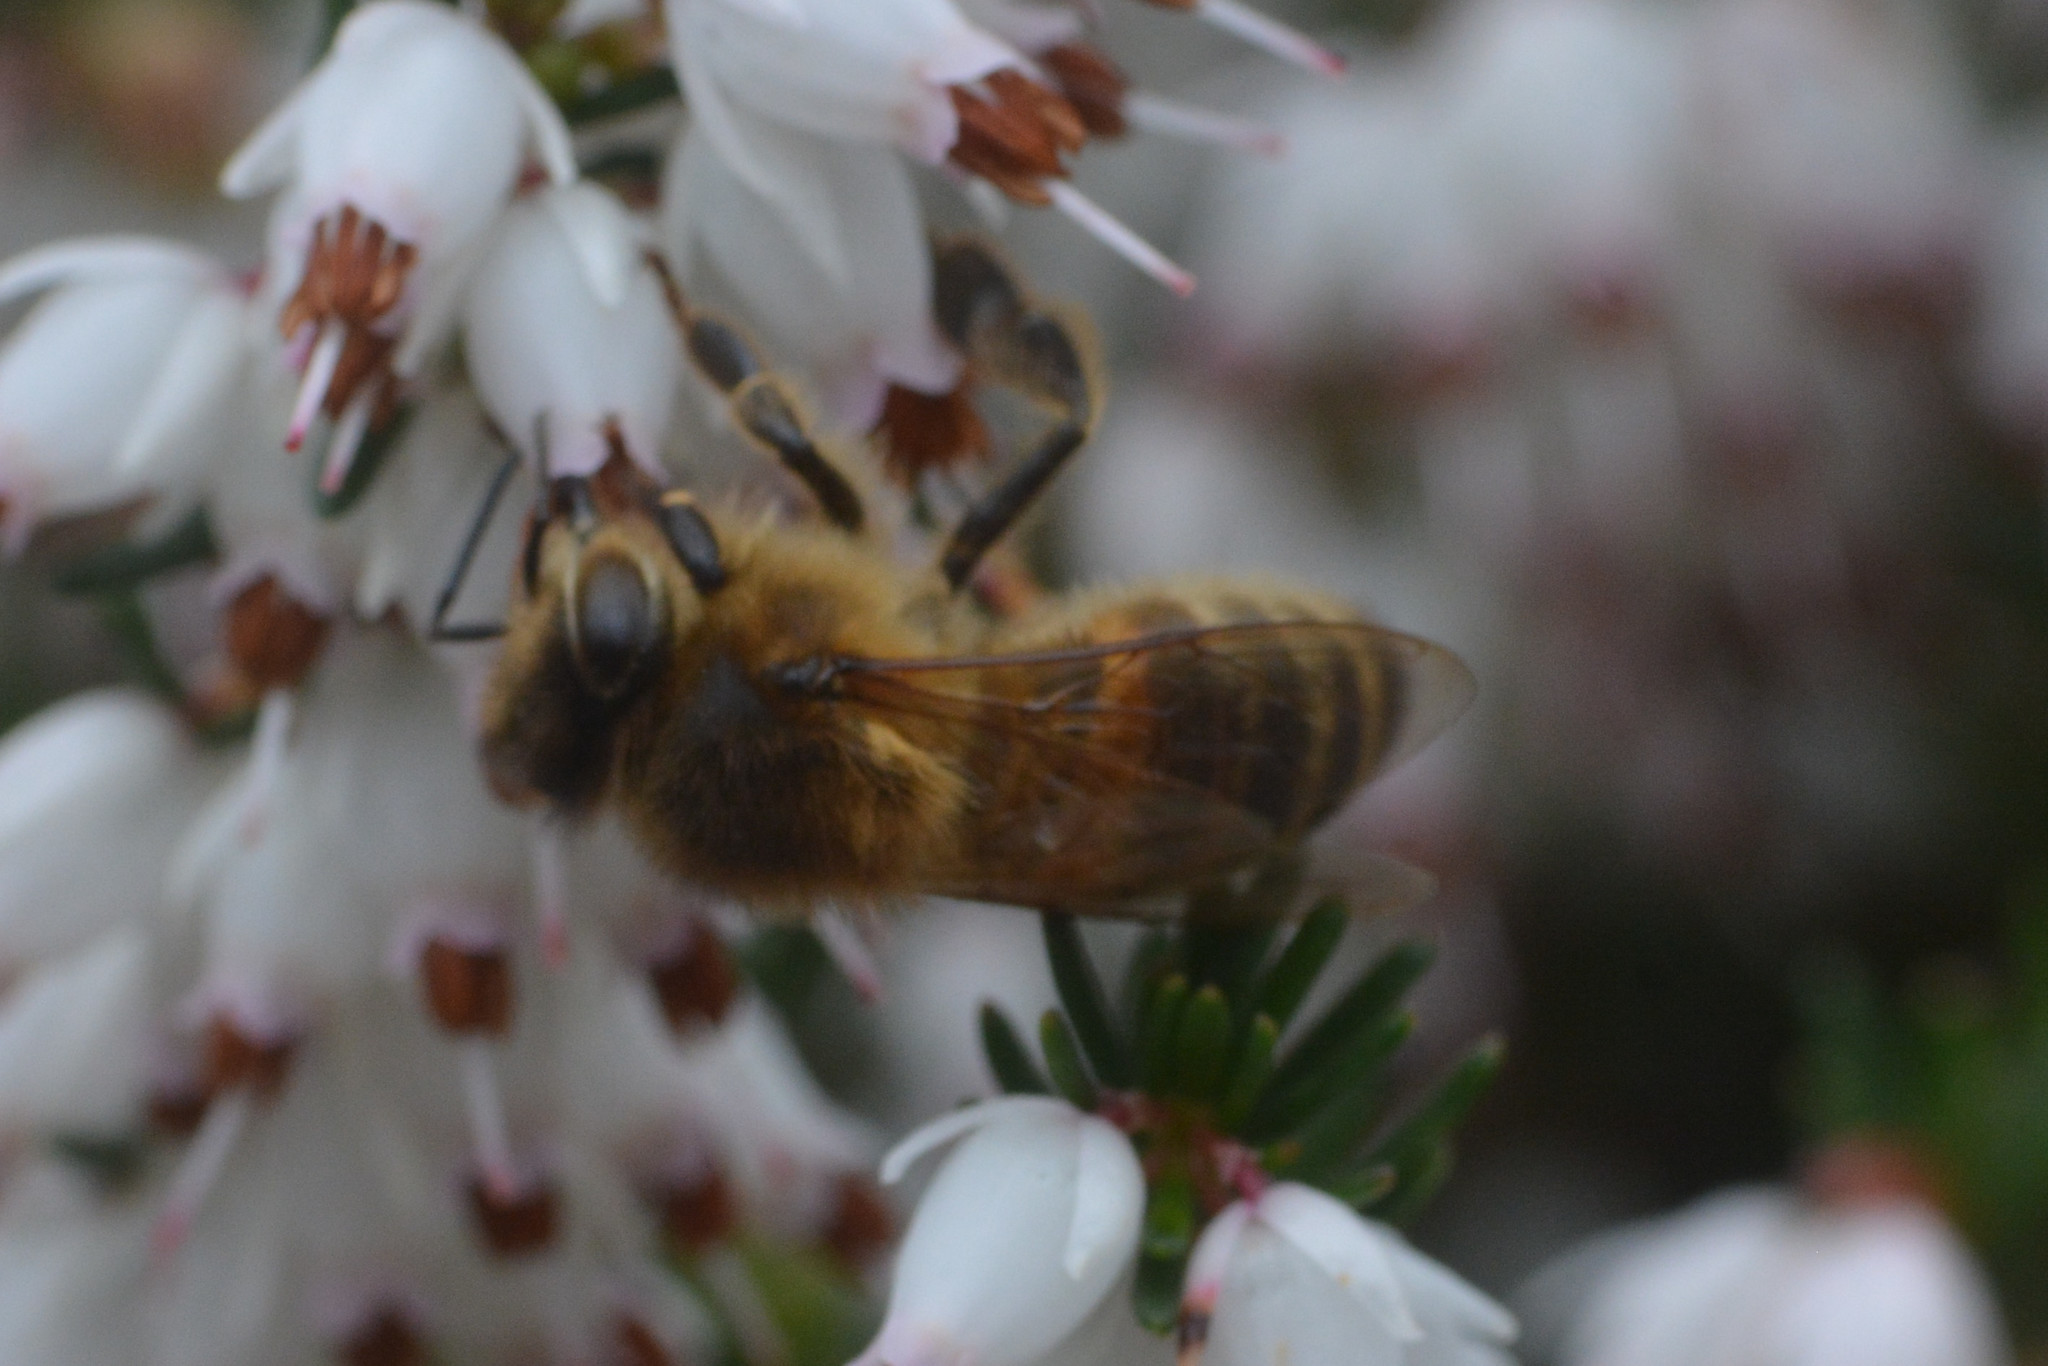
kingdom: Animalia
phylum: Arthropoda
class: Insecta
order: Hymenoptera
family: Apidae
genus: Apis
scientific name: Apis mellifera
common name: Honey bee
